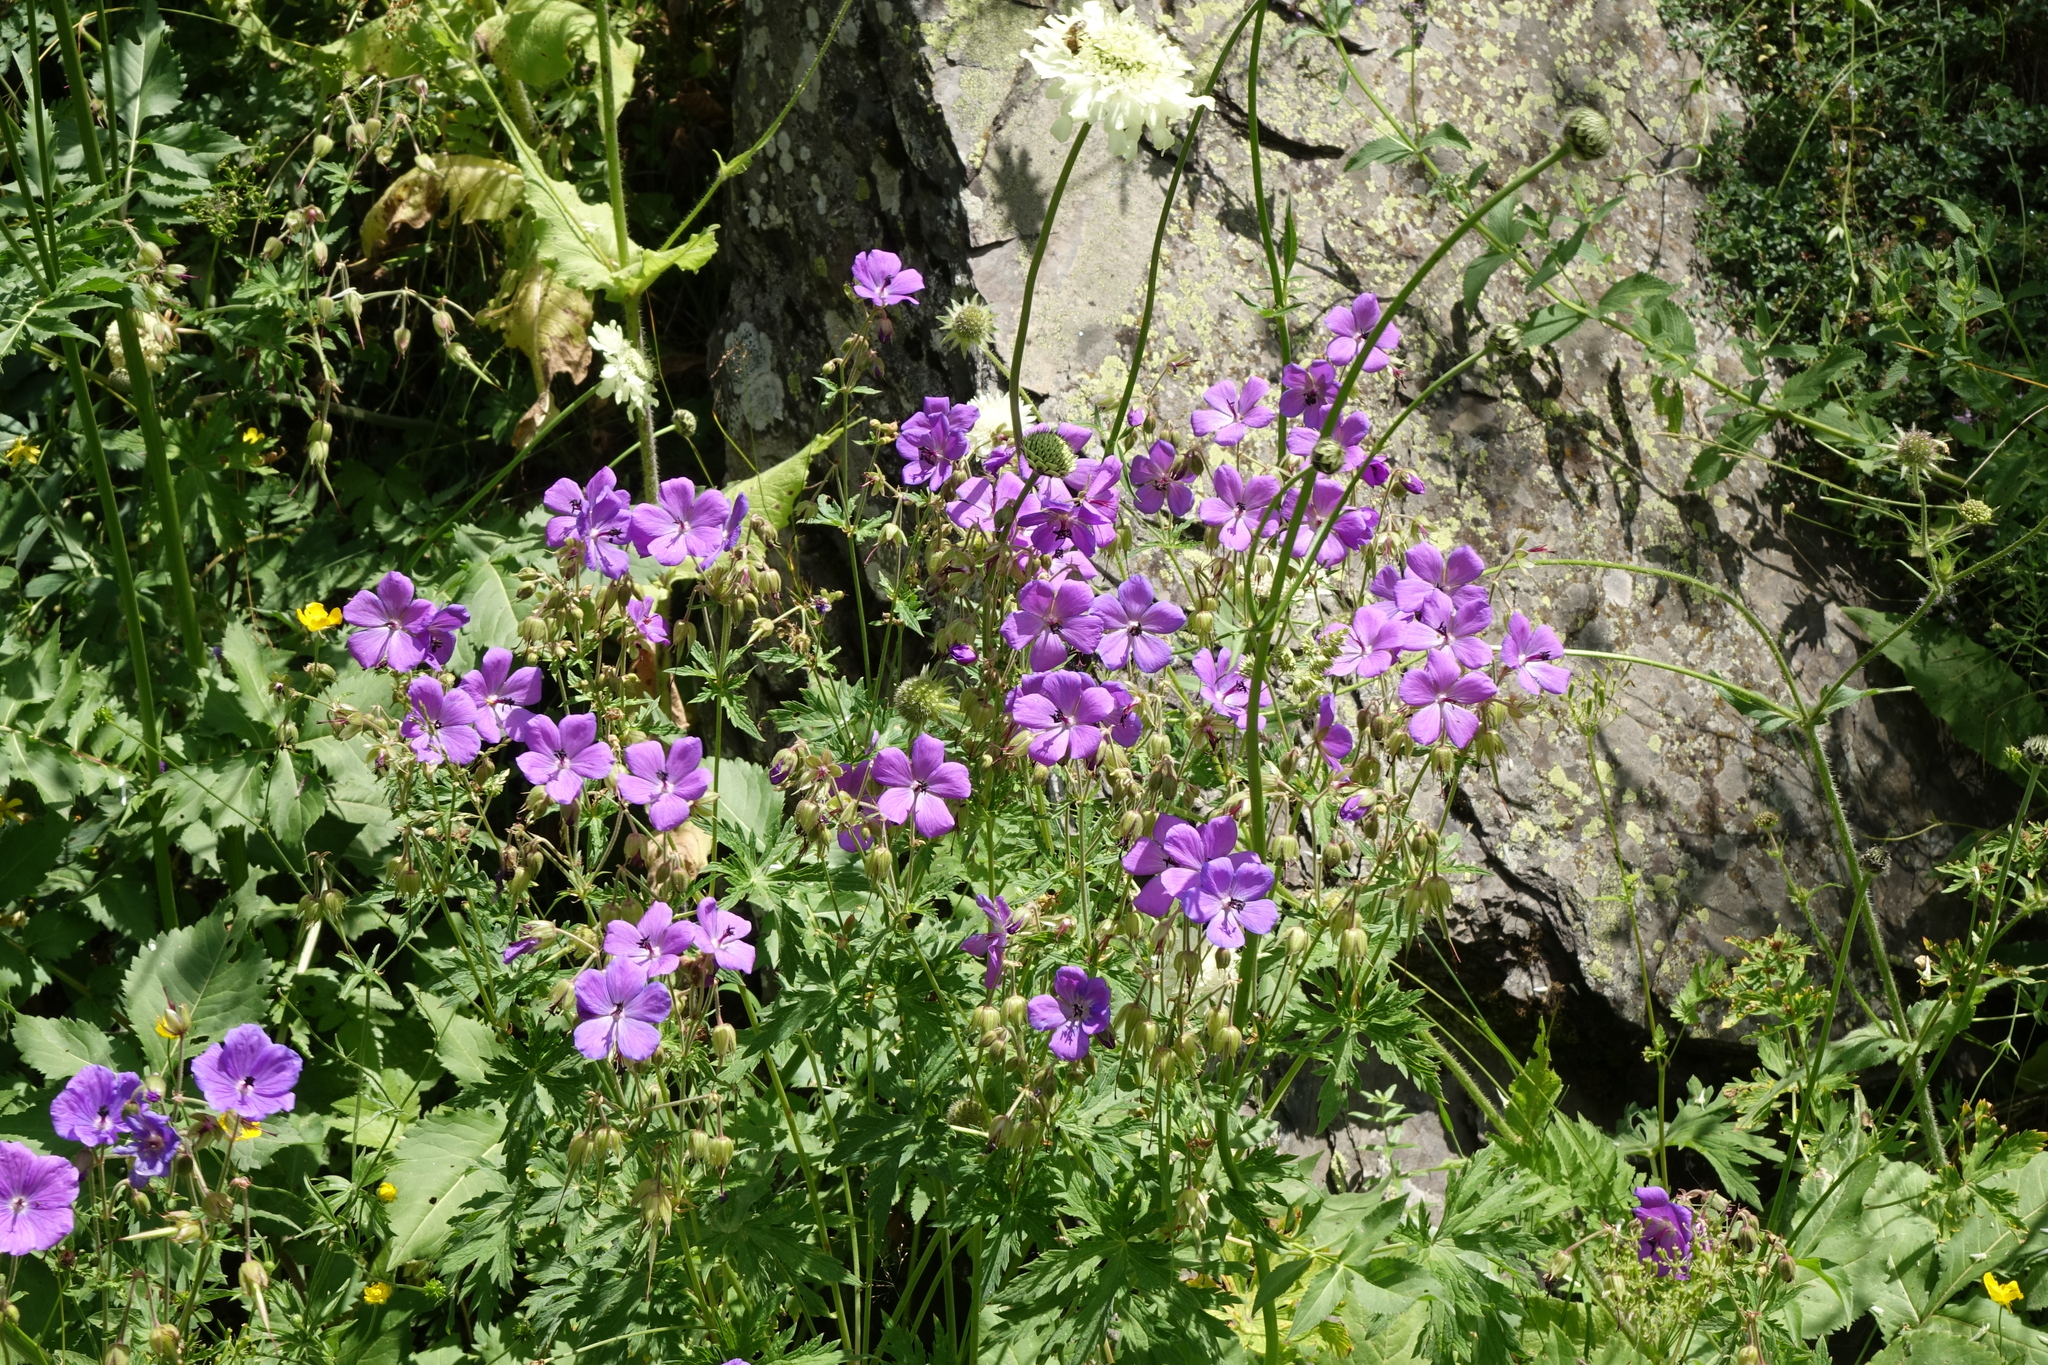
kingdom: Plantae
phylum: Tracheophyta
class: Magnoliopsida
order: Geraniales
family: Geraniaceae
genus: Geranium
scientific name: Geranium ruprechtii
